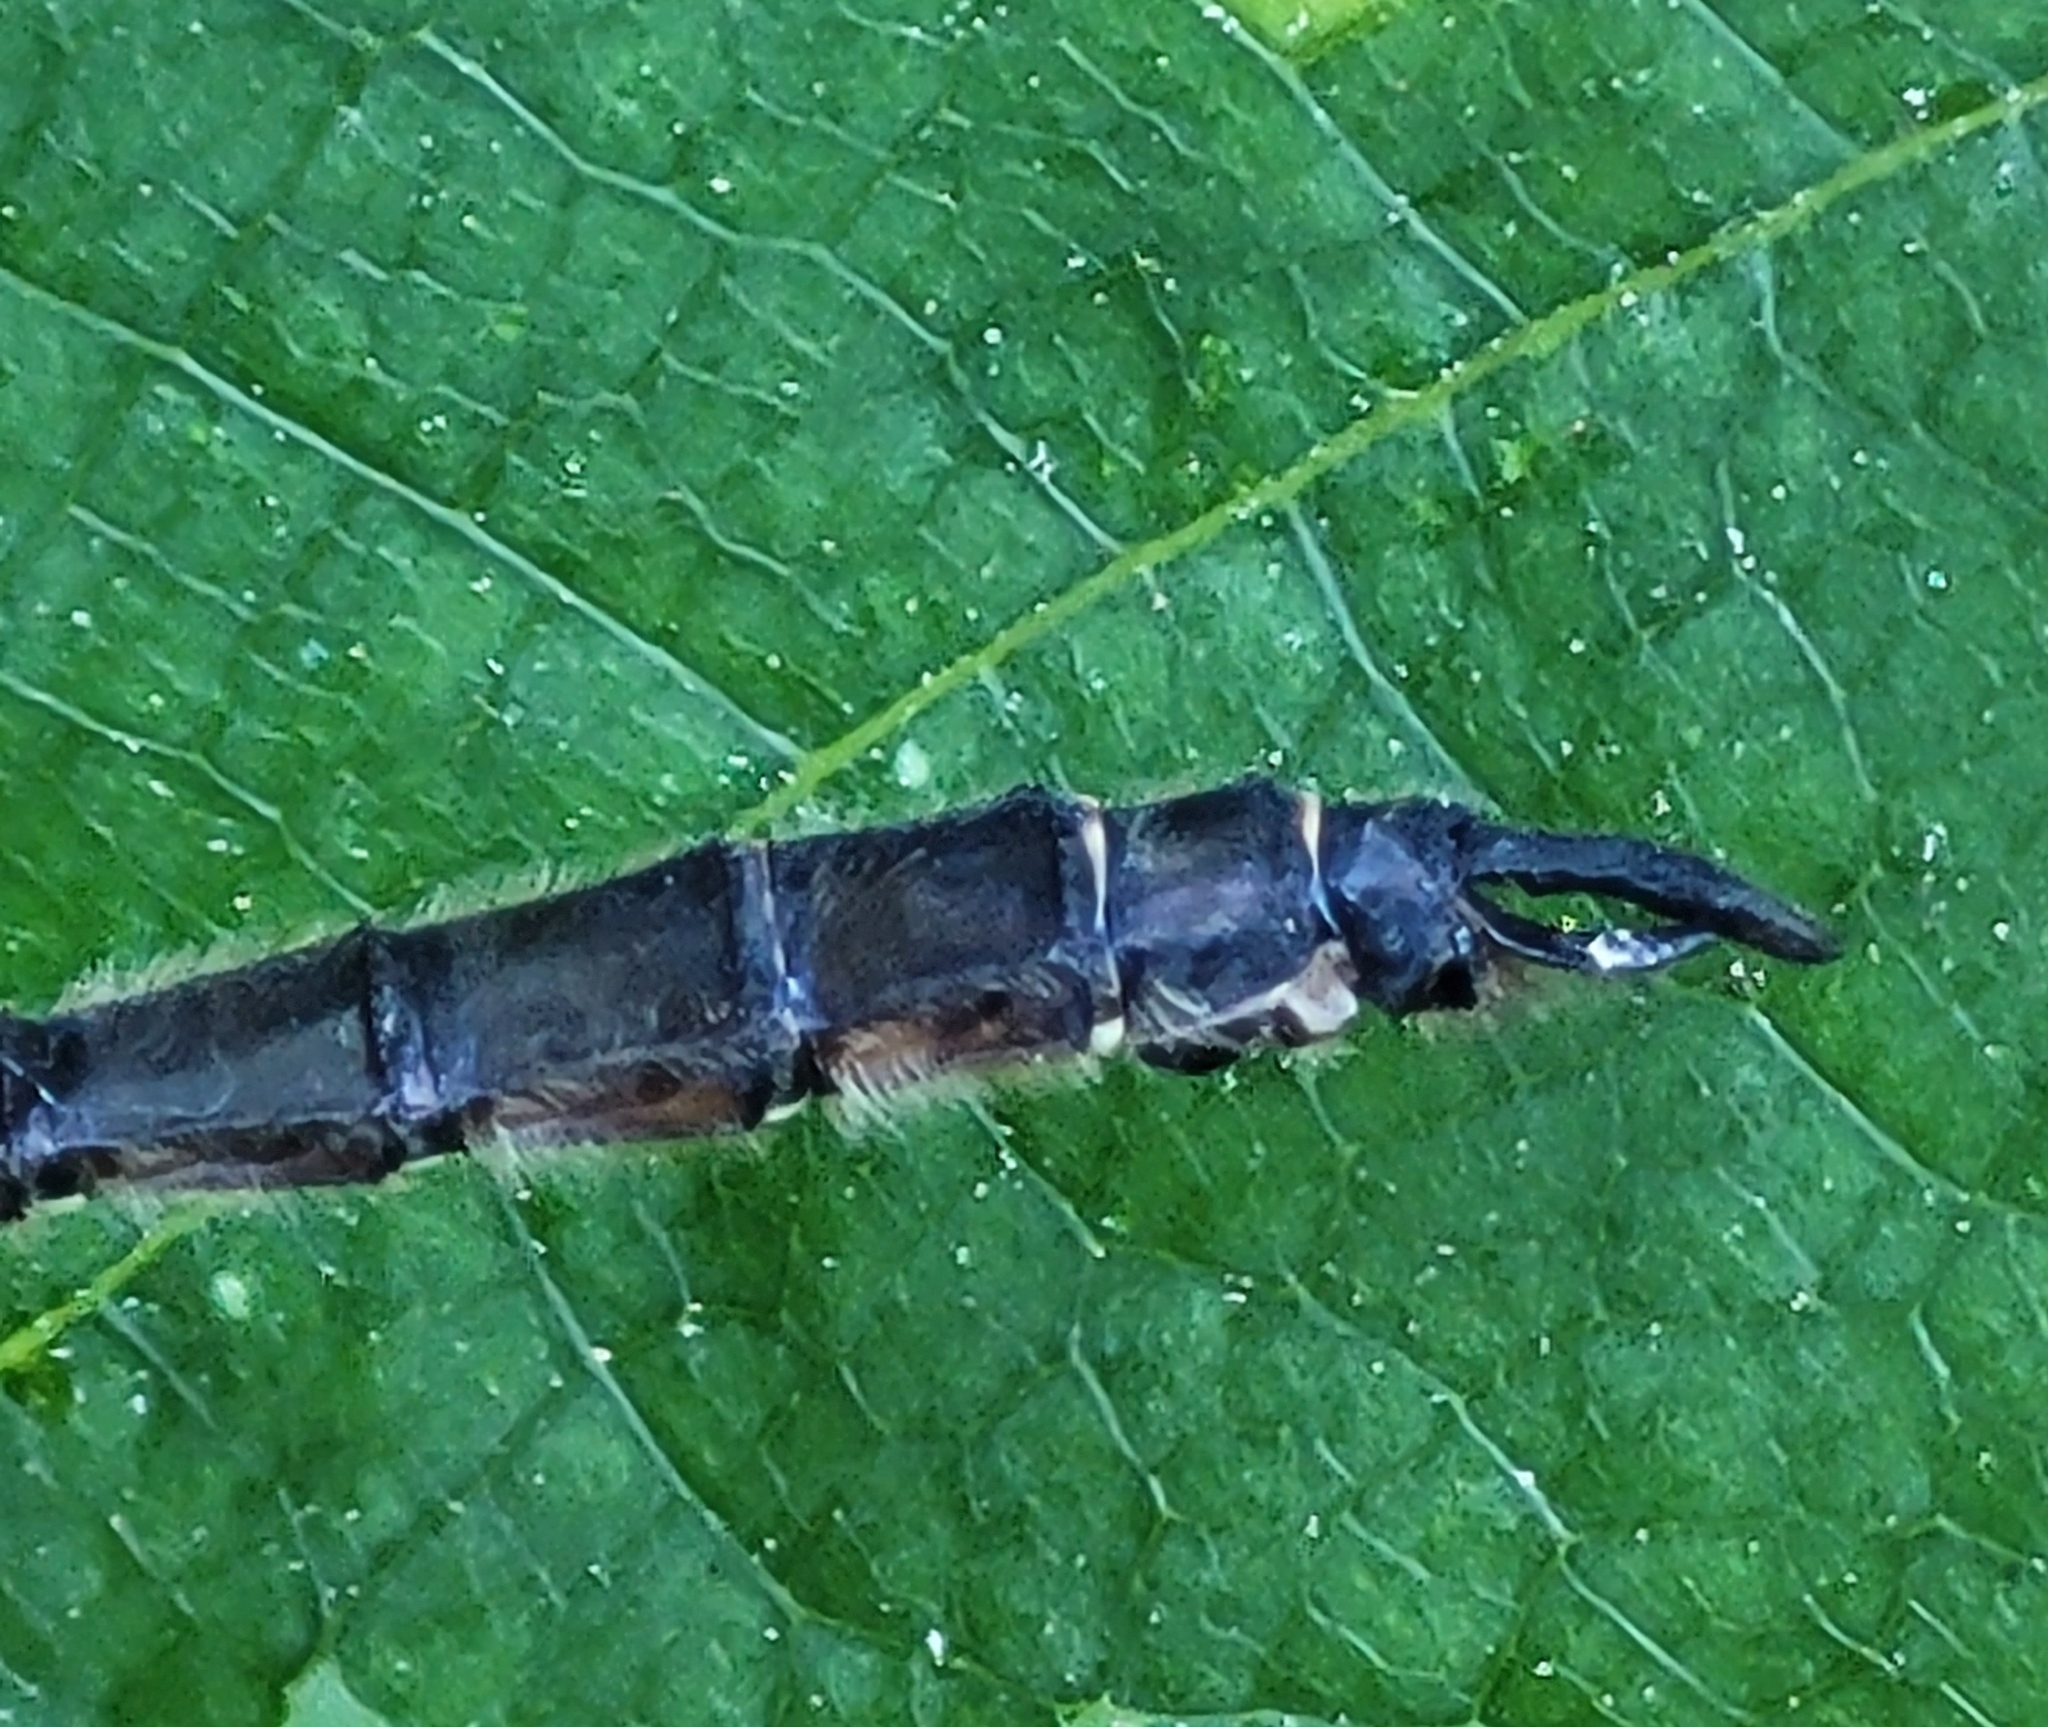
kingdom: Animalia
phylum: Arthropoda
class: Insecta
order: Odonata
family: Corduliidae
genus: Somatochlora
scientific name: Somatochlora minor
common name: Ocellated emerald
